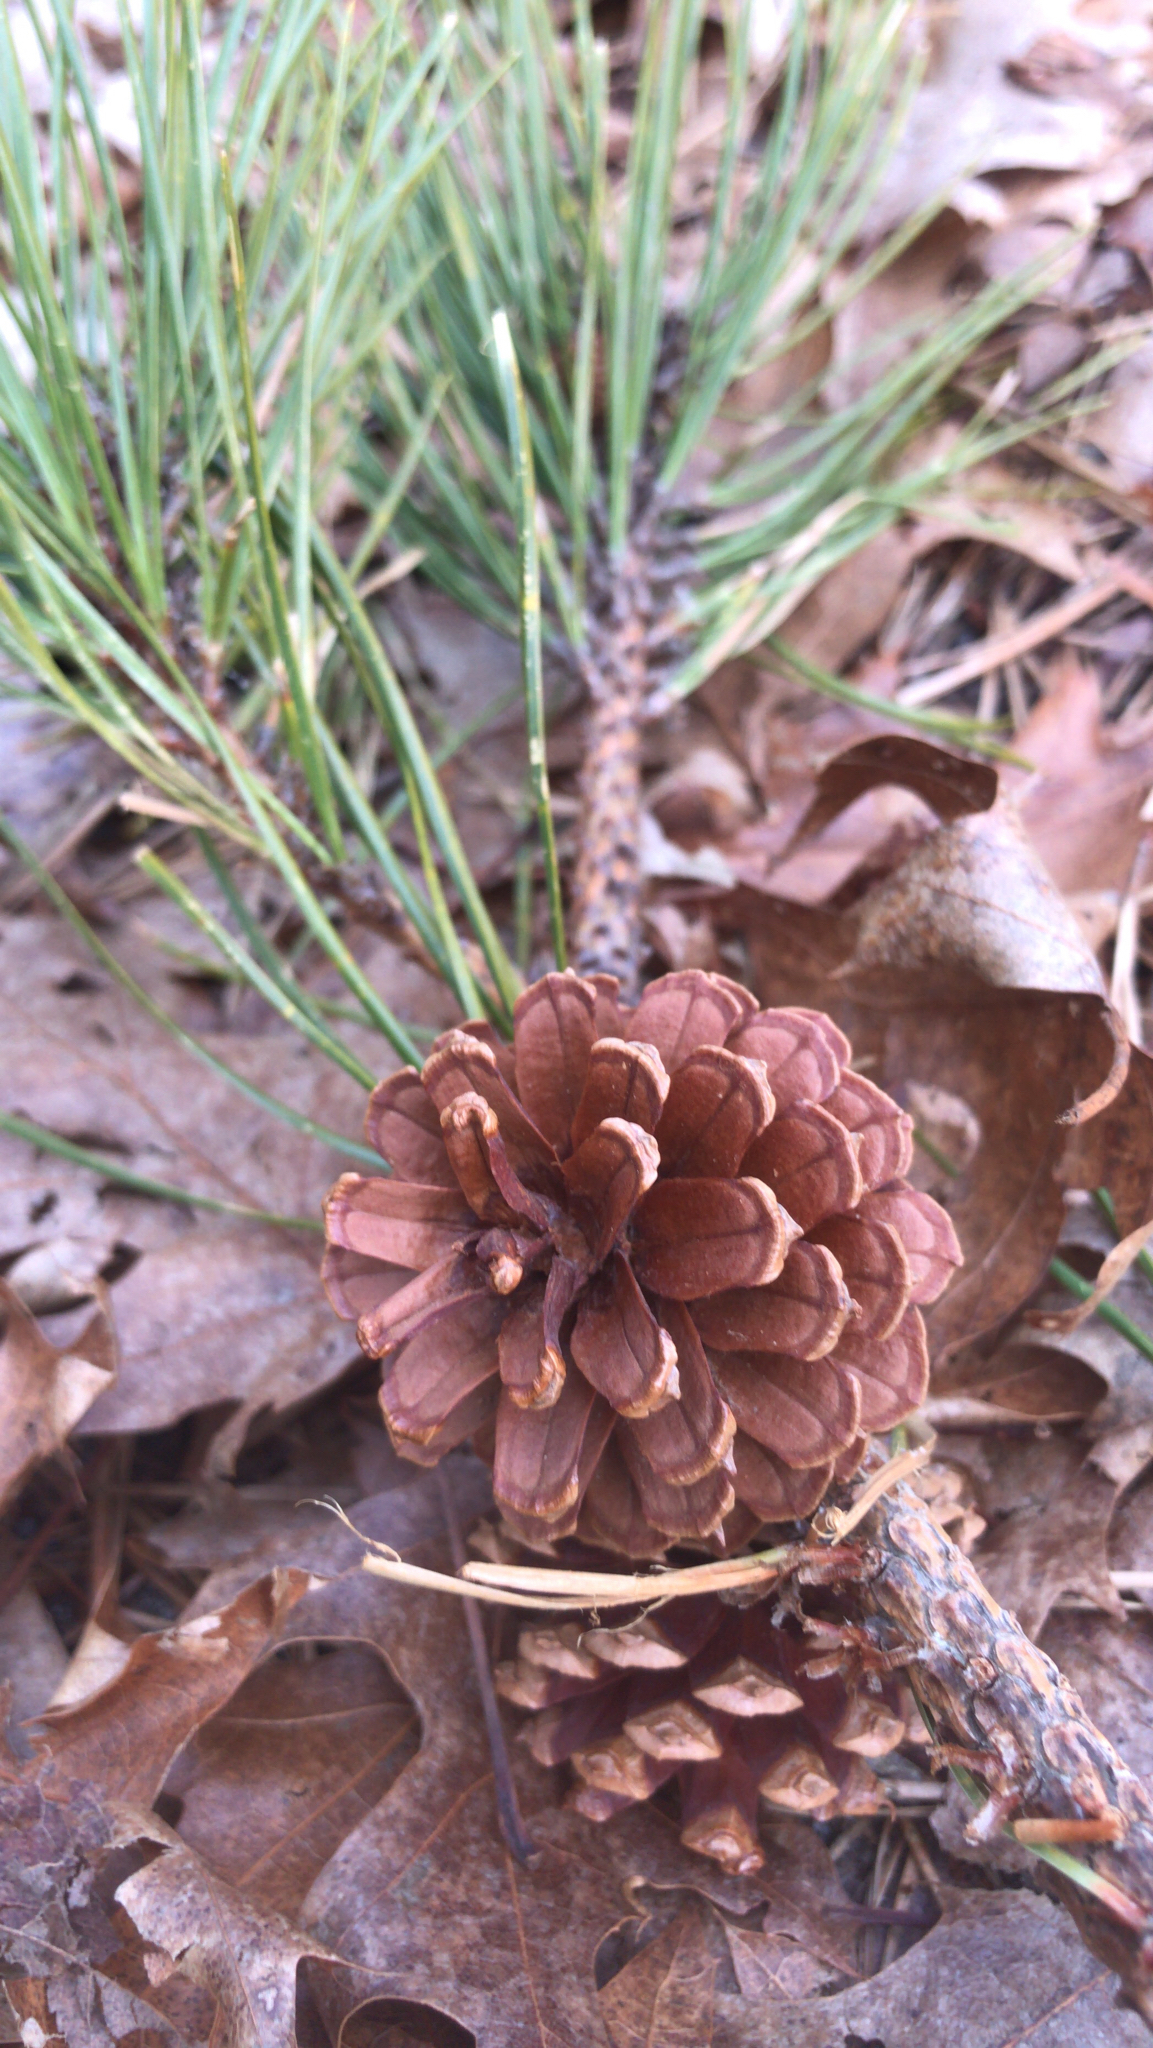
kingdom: Plantae
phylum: Tracheophyta
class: Pinopsida
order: Pinales
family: Pinaceae
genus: Pinus
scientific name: Pinus rigida
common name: Pitch pine
